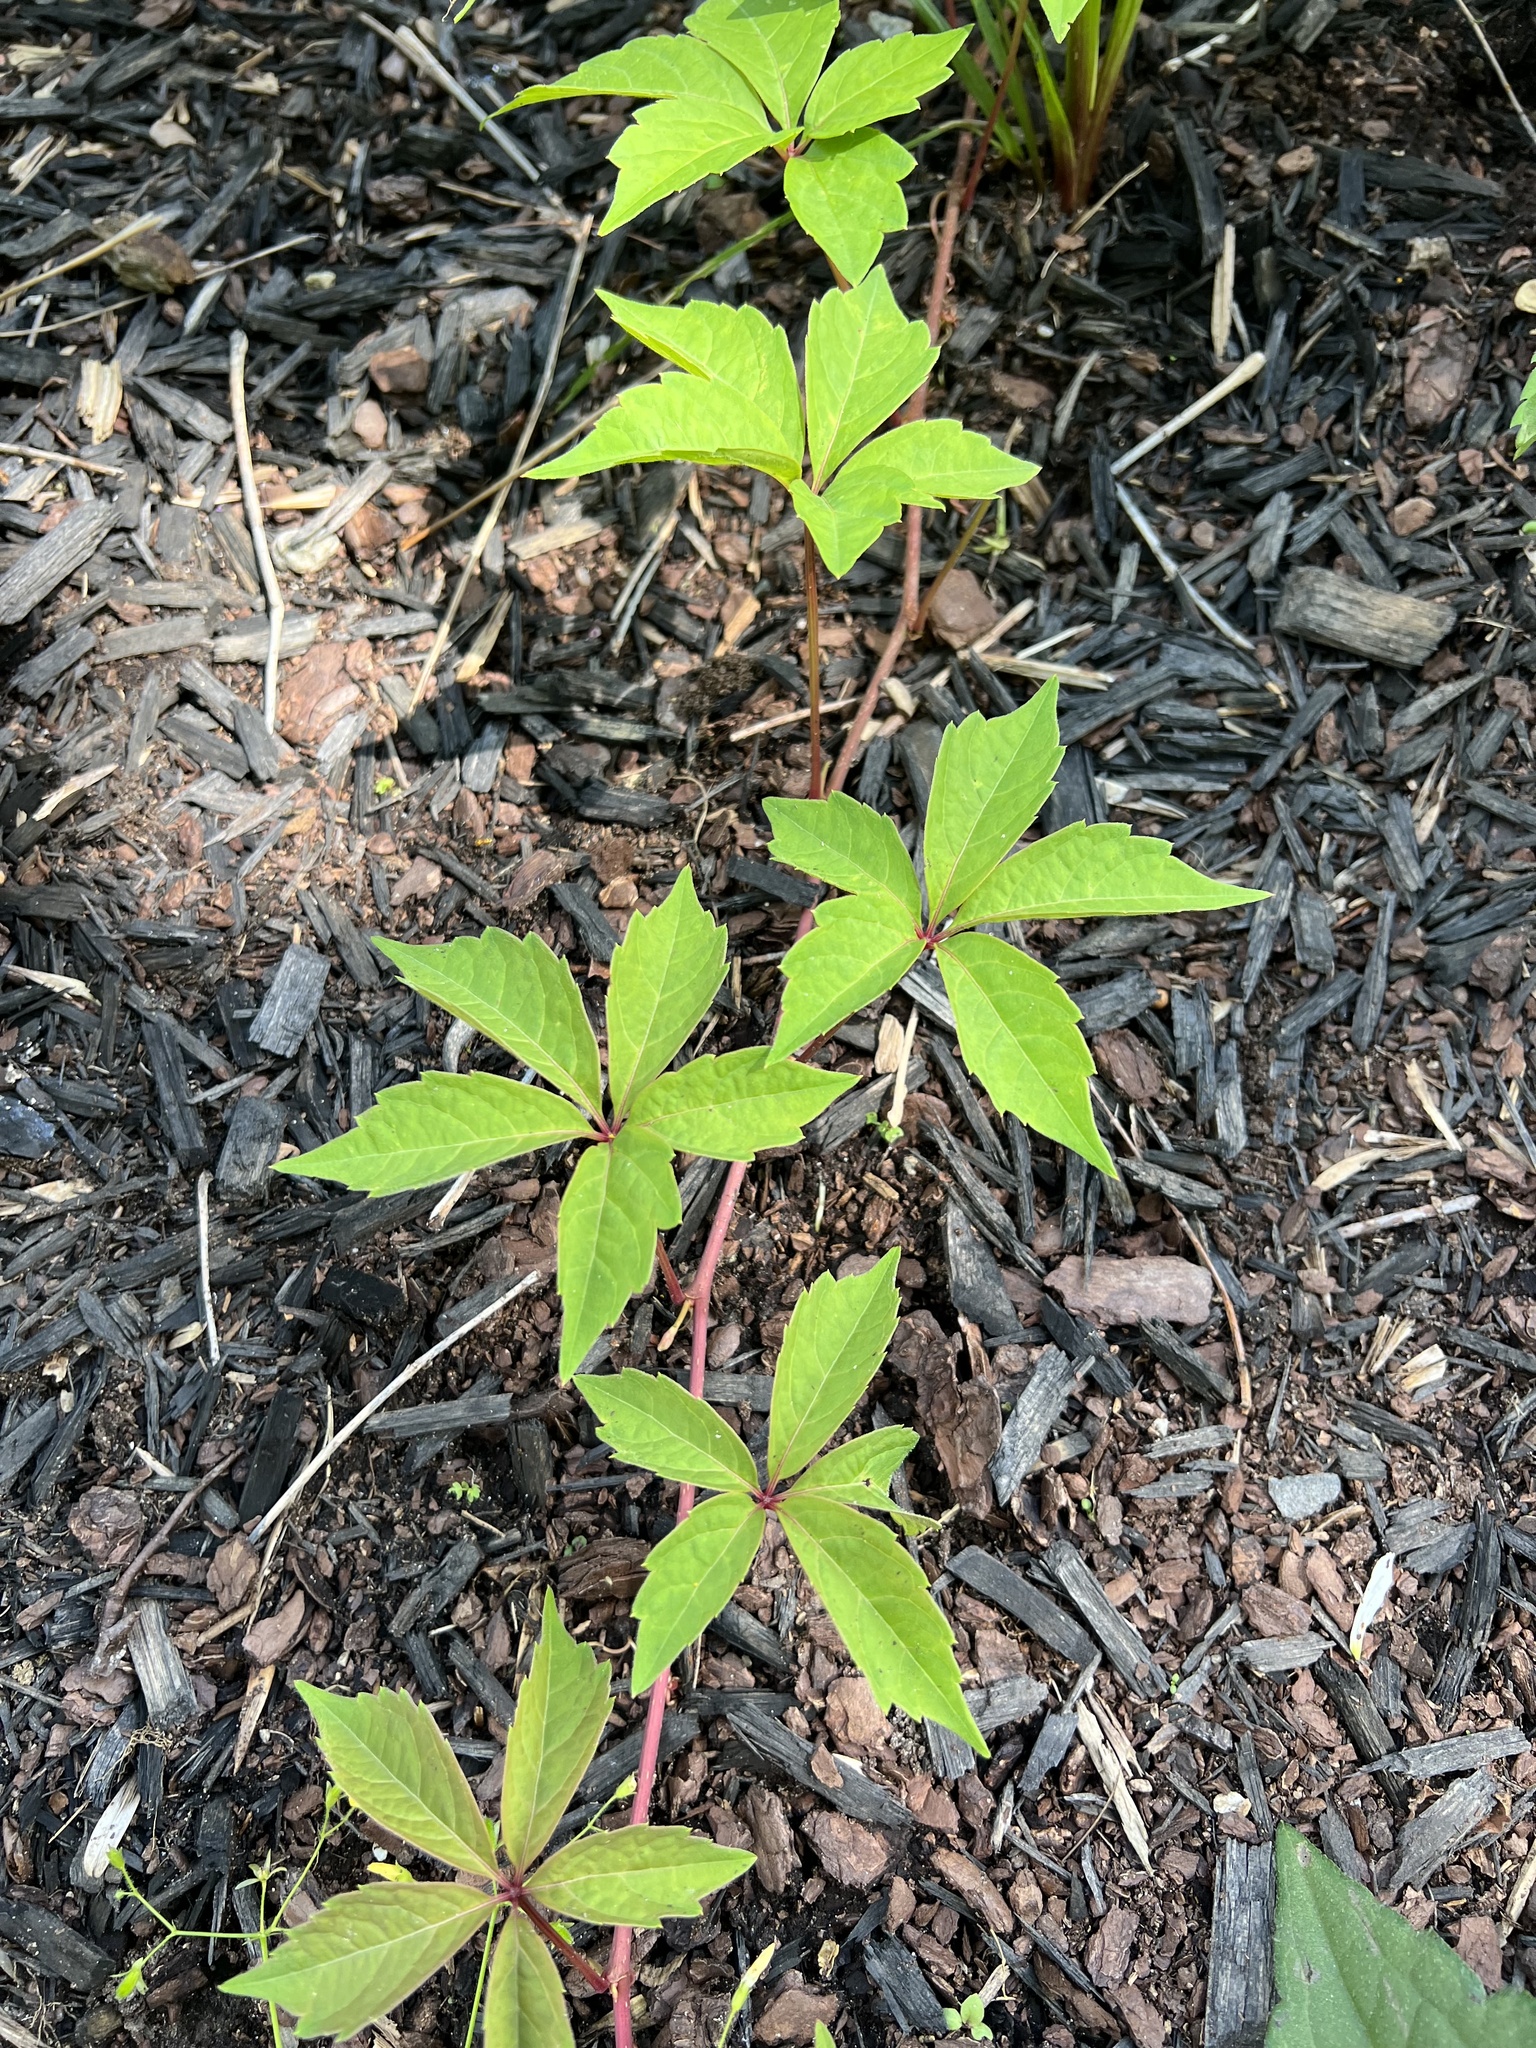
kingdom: Plantae
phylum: Tracheophyta
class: Magnoliopsida
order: Vitales
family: Vitaceae
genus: Parthenocissus
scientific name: Parthenocissus quinquefolia
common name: Virginia-creeper
